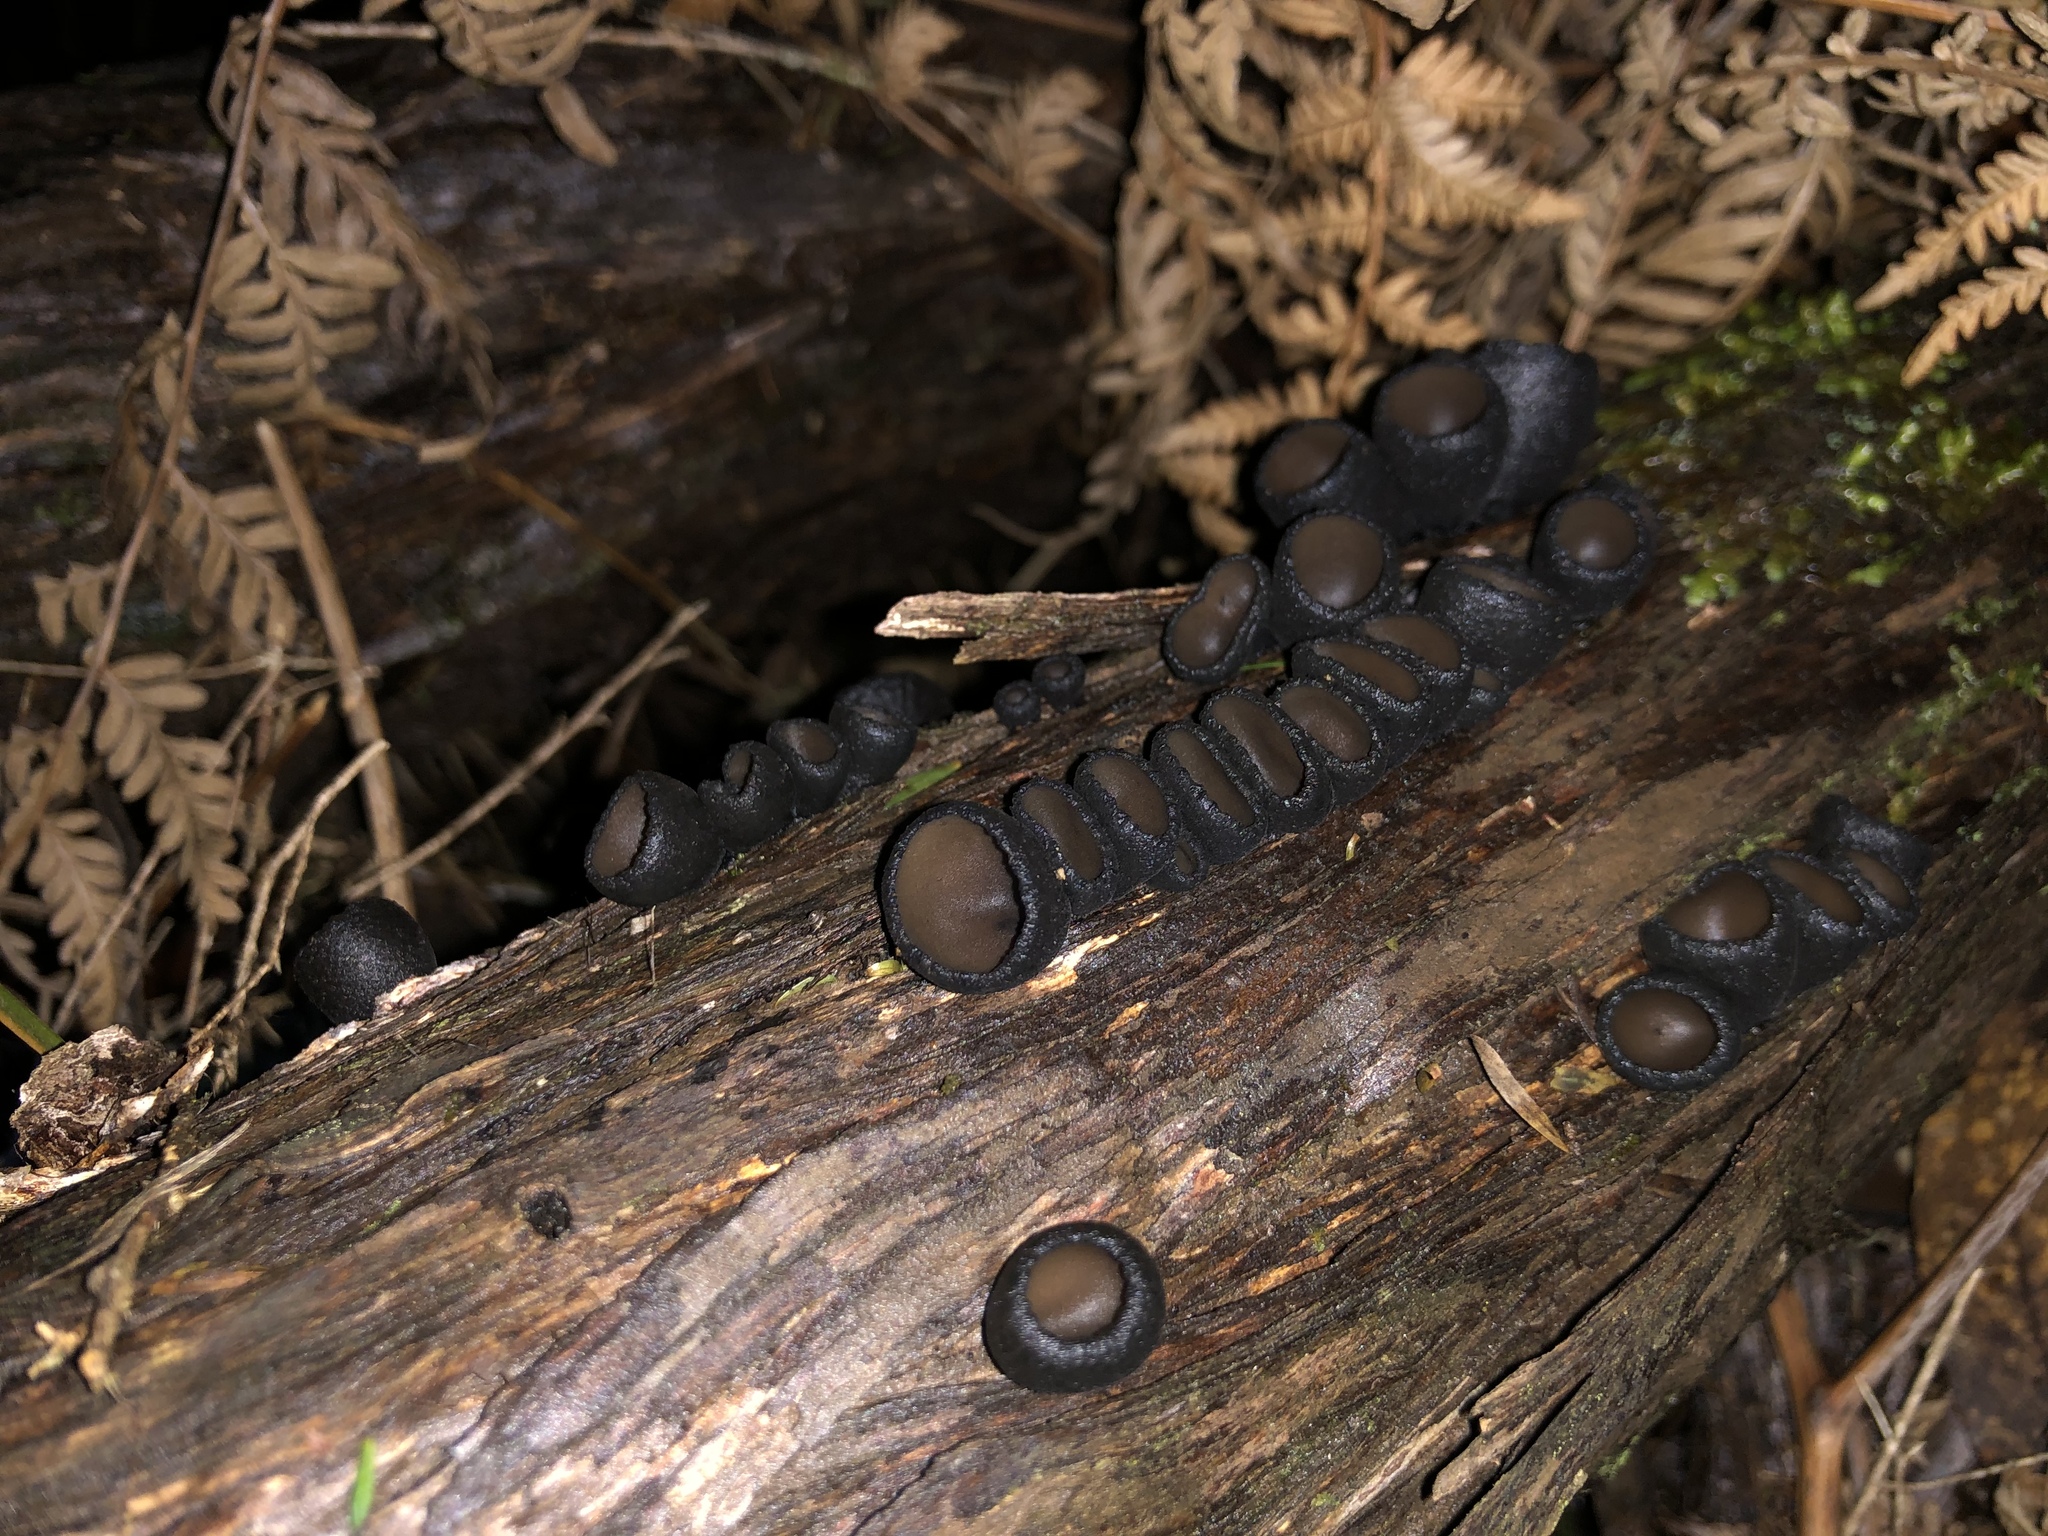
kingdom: Fungi
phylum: Ascomycota
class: Pezizomycetes
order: Pezizales
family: Sarcosomataceae
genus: Plectania
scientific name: Plectania campylospora
